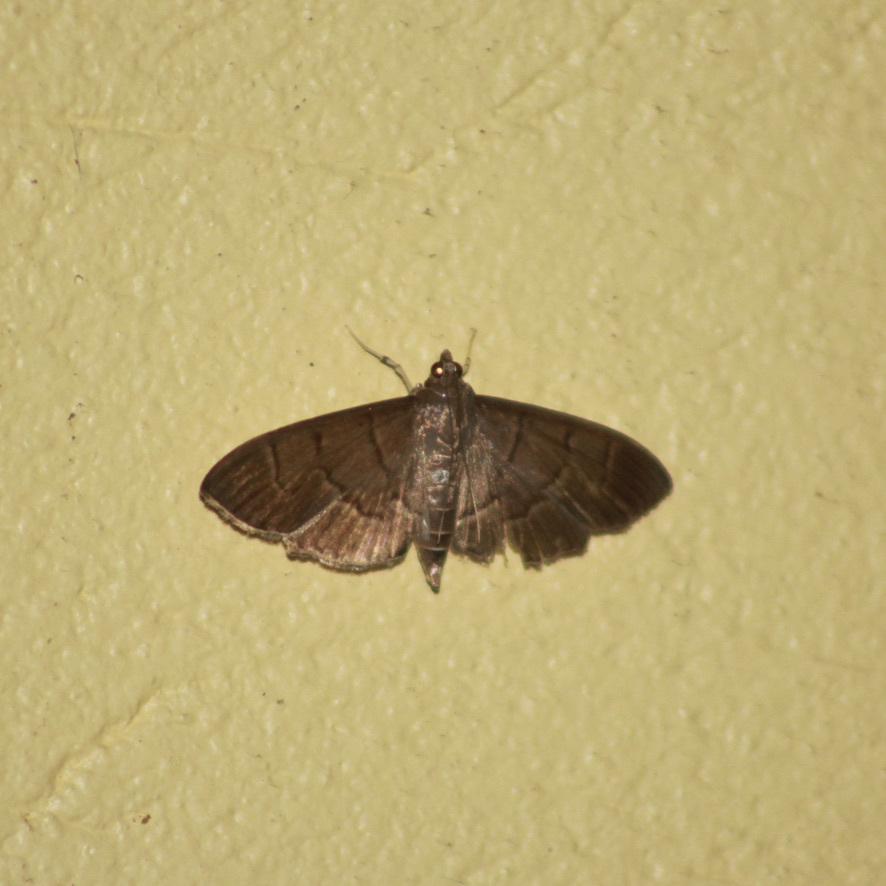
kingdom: Animalia
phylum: Arthropoda
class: Insecta
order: Lepidoptera
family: Crambidae
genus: Herpetogramma
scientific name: Herpetogramma semilaniata
